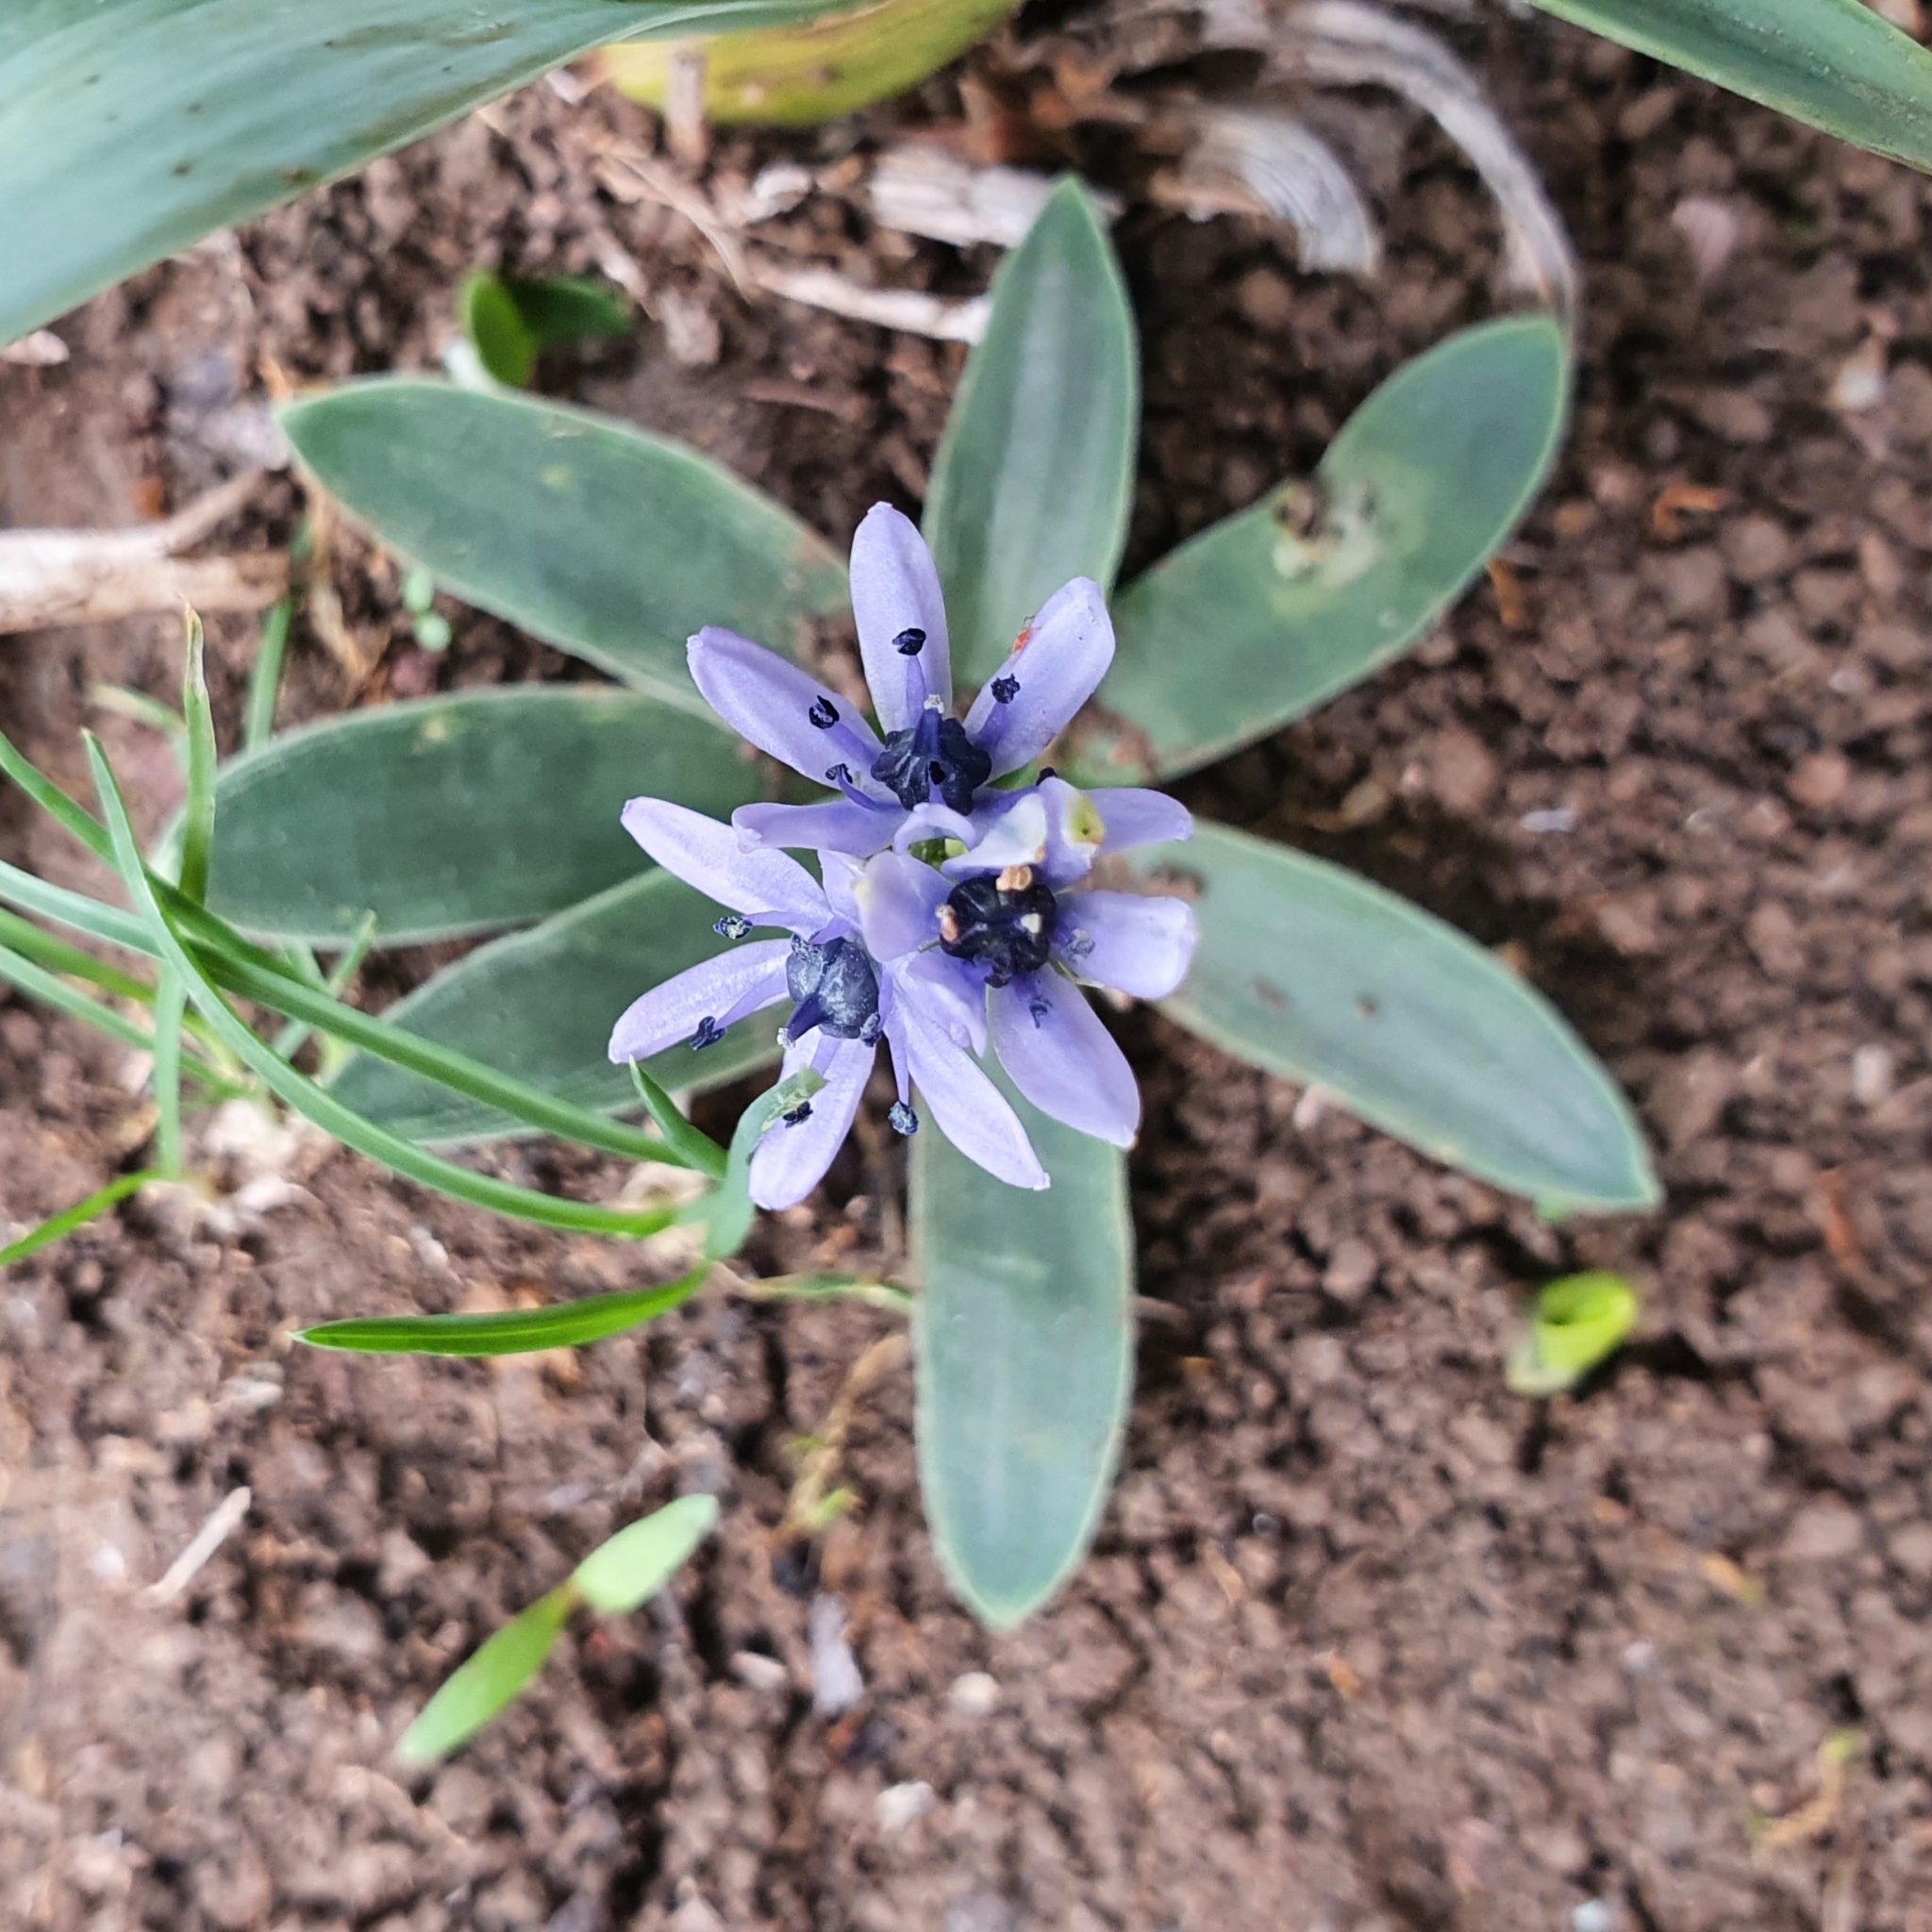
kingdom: Plantae
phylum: Tracheophyta
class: Liliopsida
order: Asparagales
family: Asparagaceae
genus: Hyacinthoides
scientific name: Hyacinthoides lingulata
